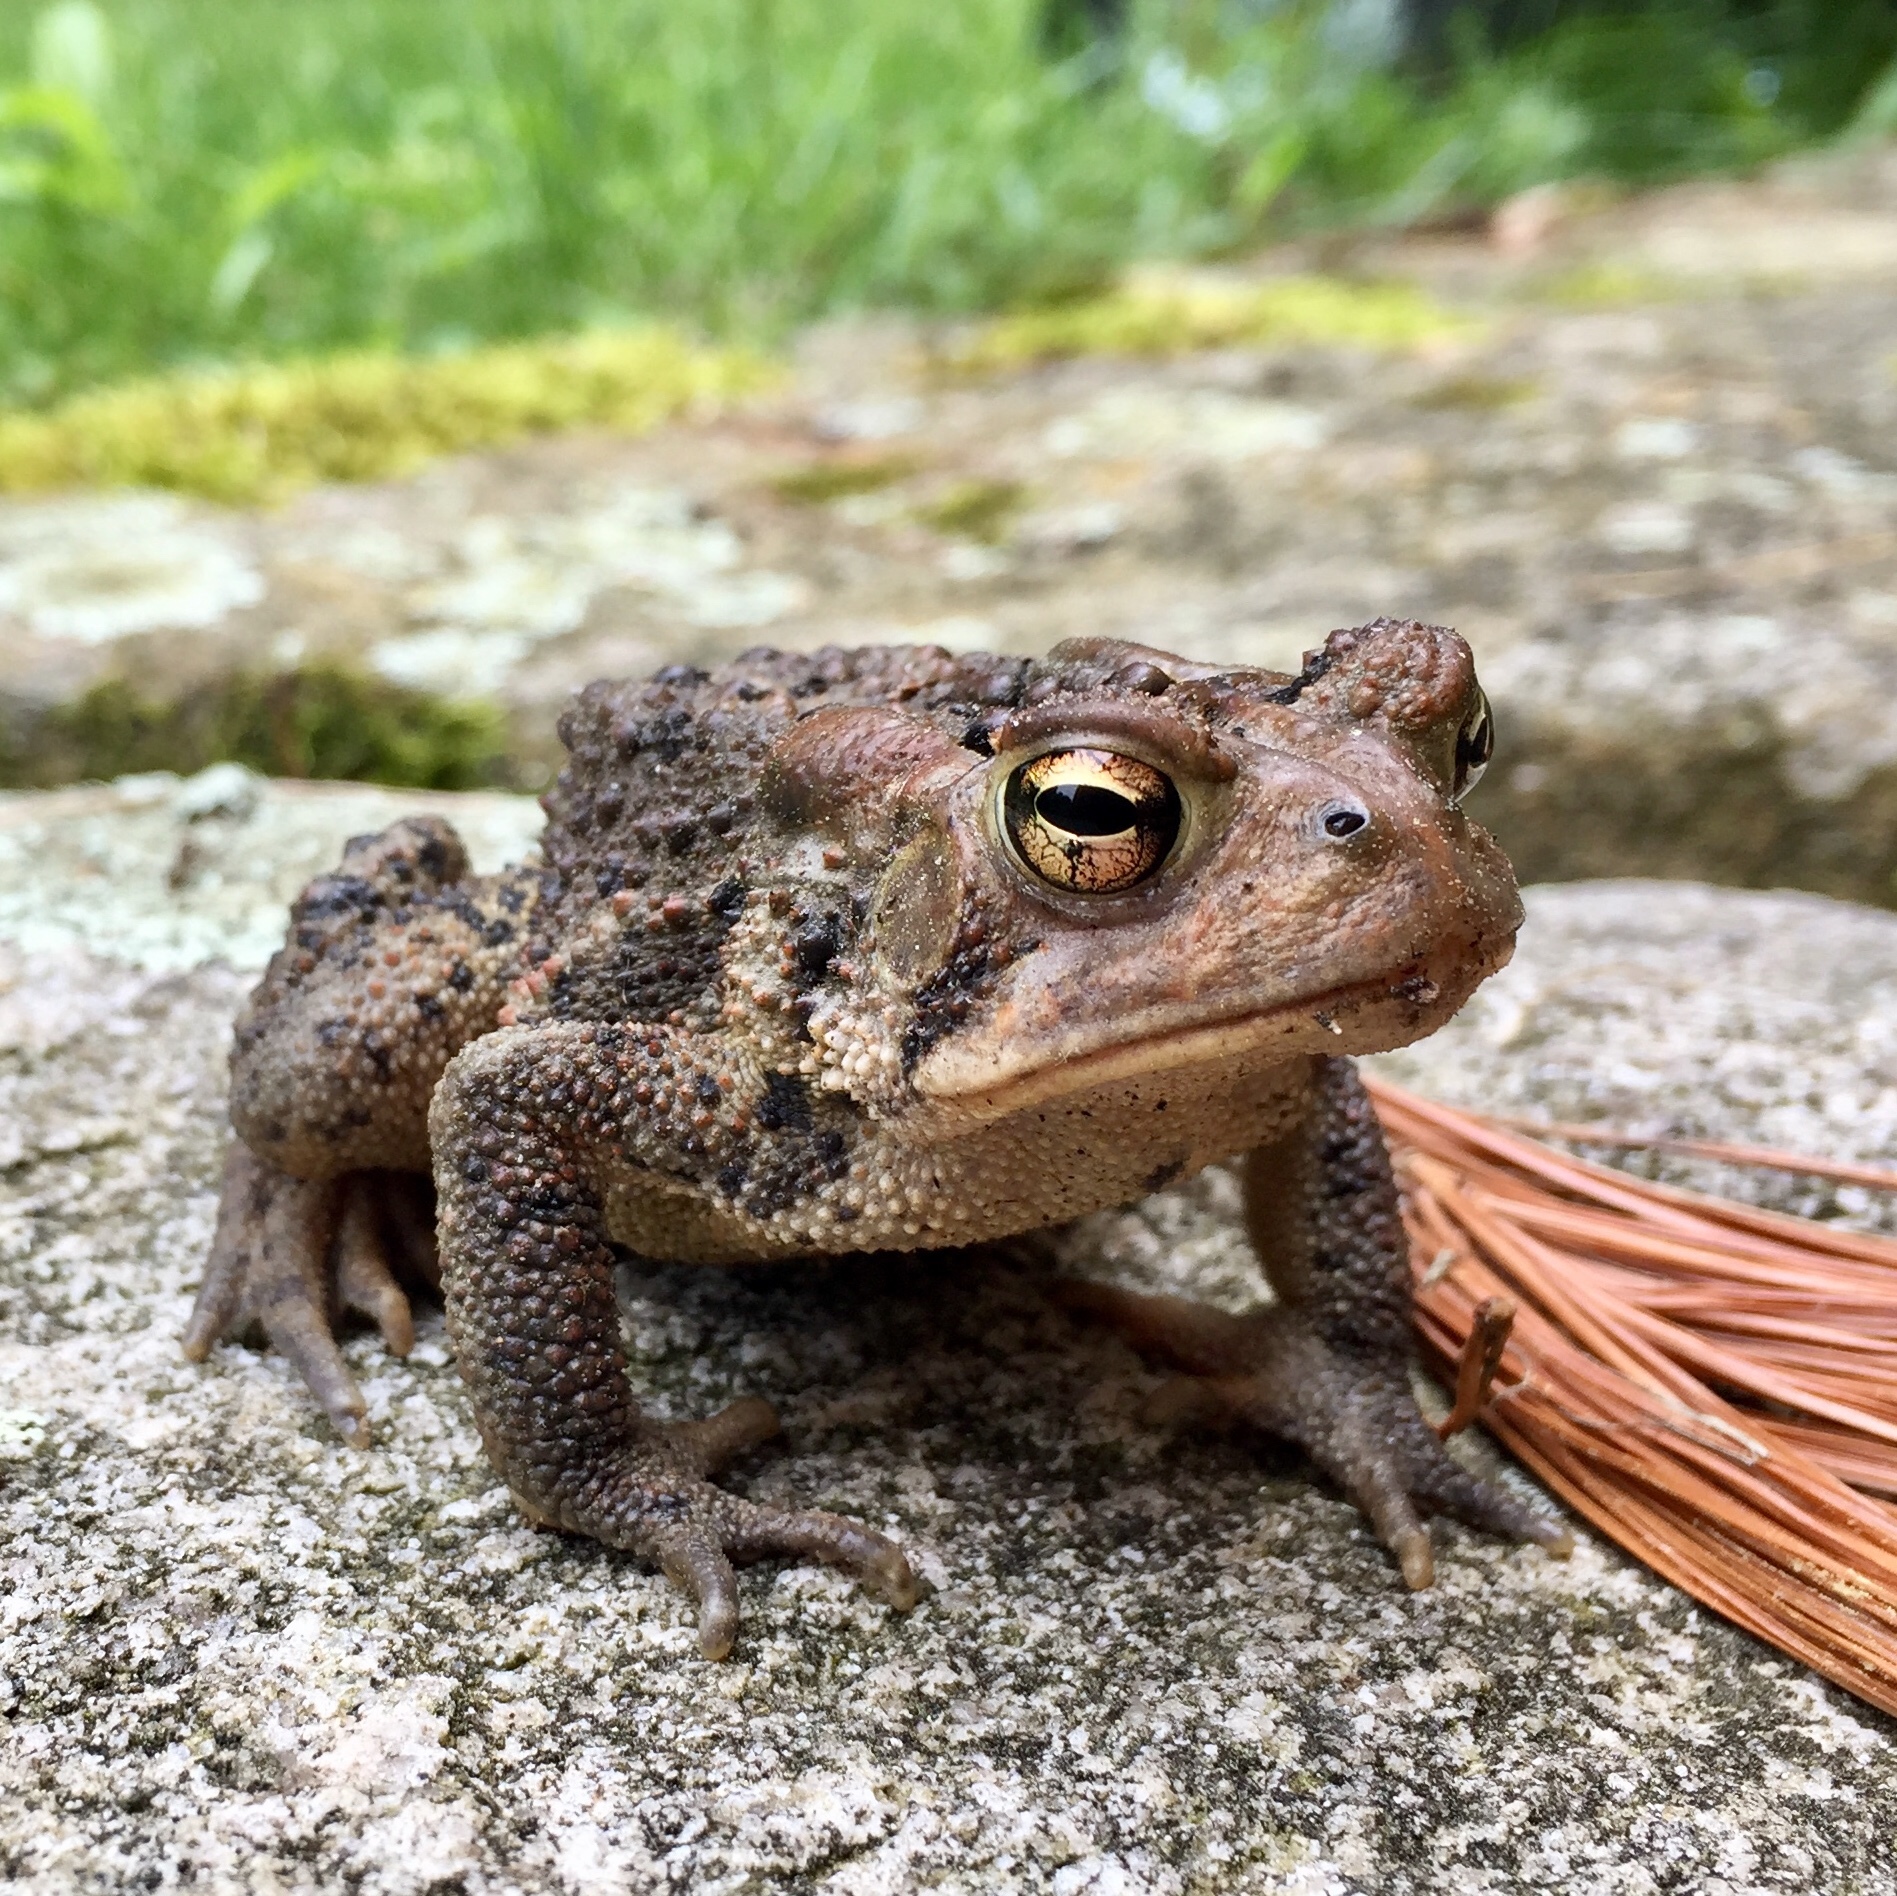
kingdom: Animalia
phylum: Chordata
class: Amphibia
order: Anura
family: Bufonidae
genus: Anaxyrus
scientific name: Anaxyrus americanus
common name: American toad
